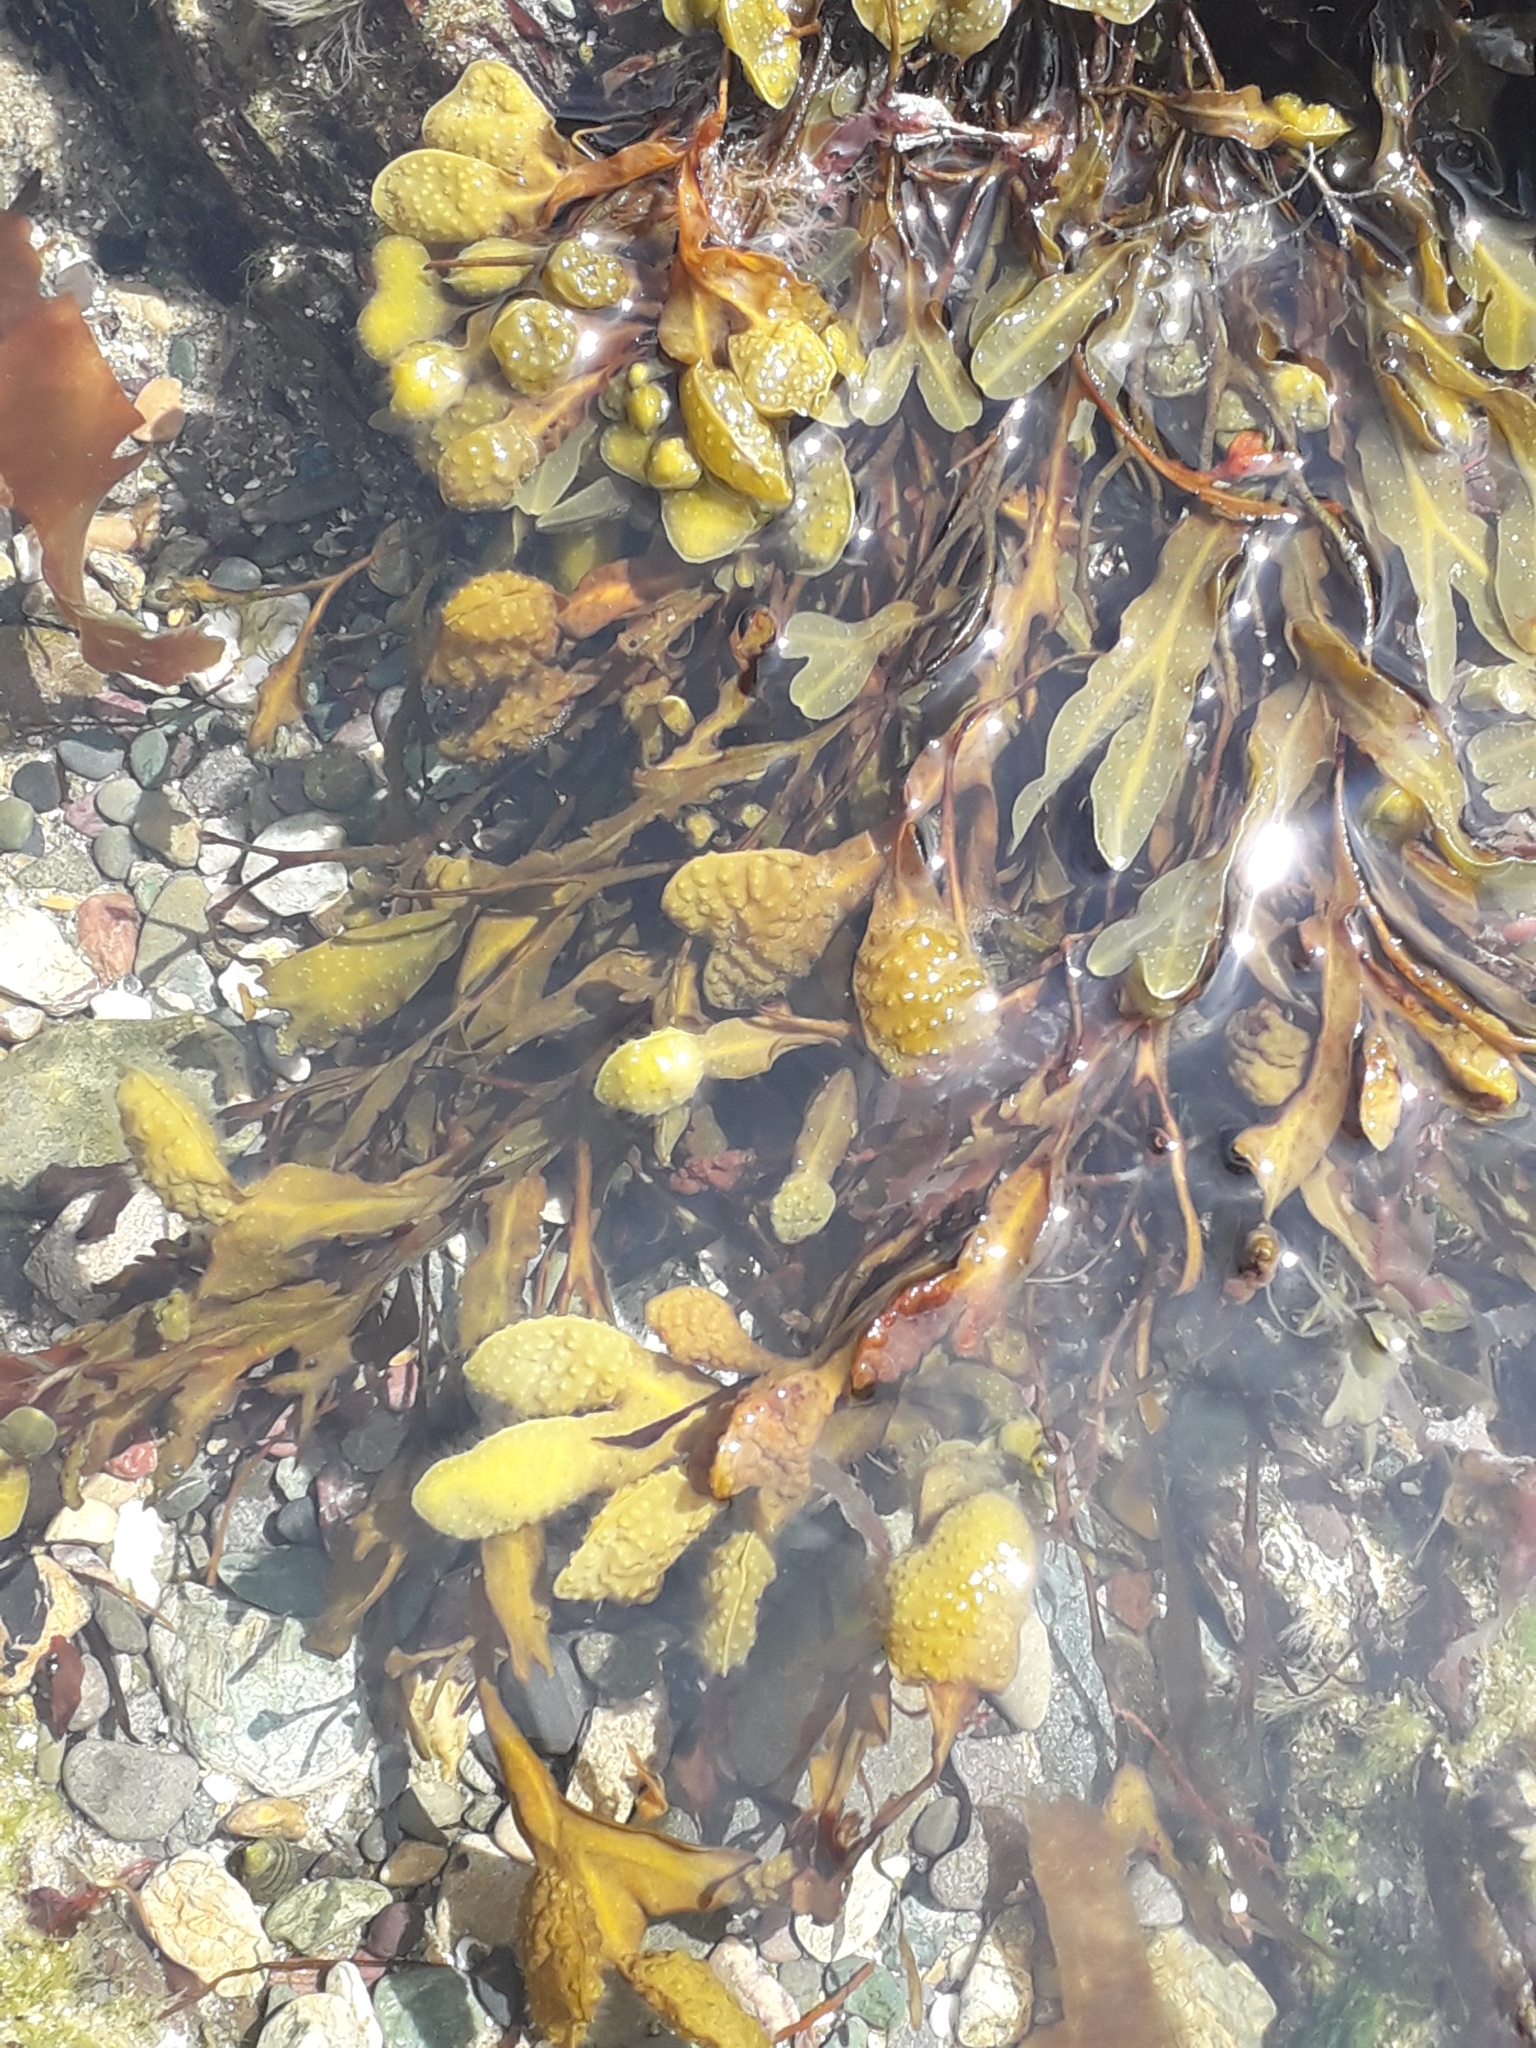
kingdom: Chromista
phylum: Ochrophyta
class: Phaeophyceae
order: Fucales
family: Fucaceae
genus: Fucus
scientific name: Fucus spiralis
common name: Spiral wrack
